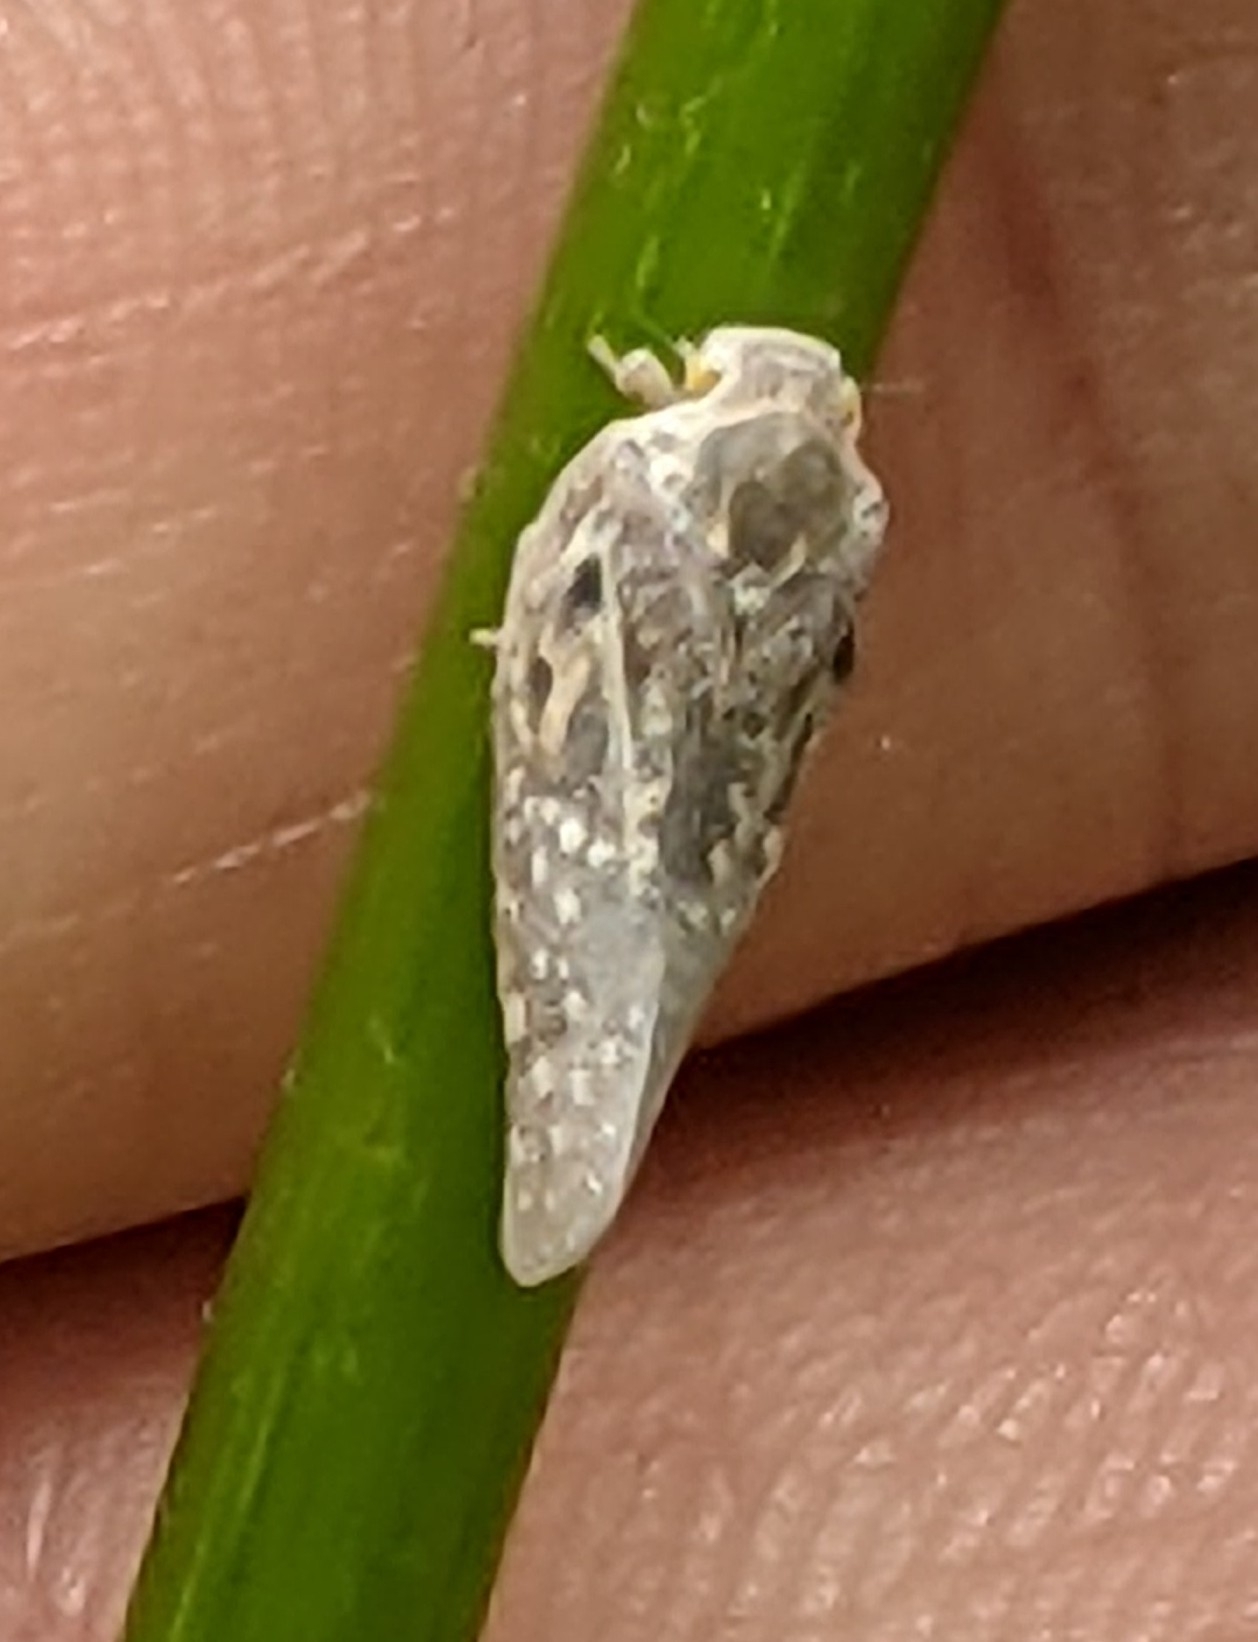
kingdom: Animalia
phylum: Arthropoda
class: Insecta
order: Hemiptera
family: Flatidae
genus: Metcalfa
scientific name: Metcalfa pruinosa
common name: Citrus flatid planthopper
